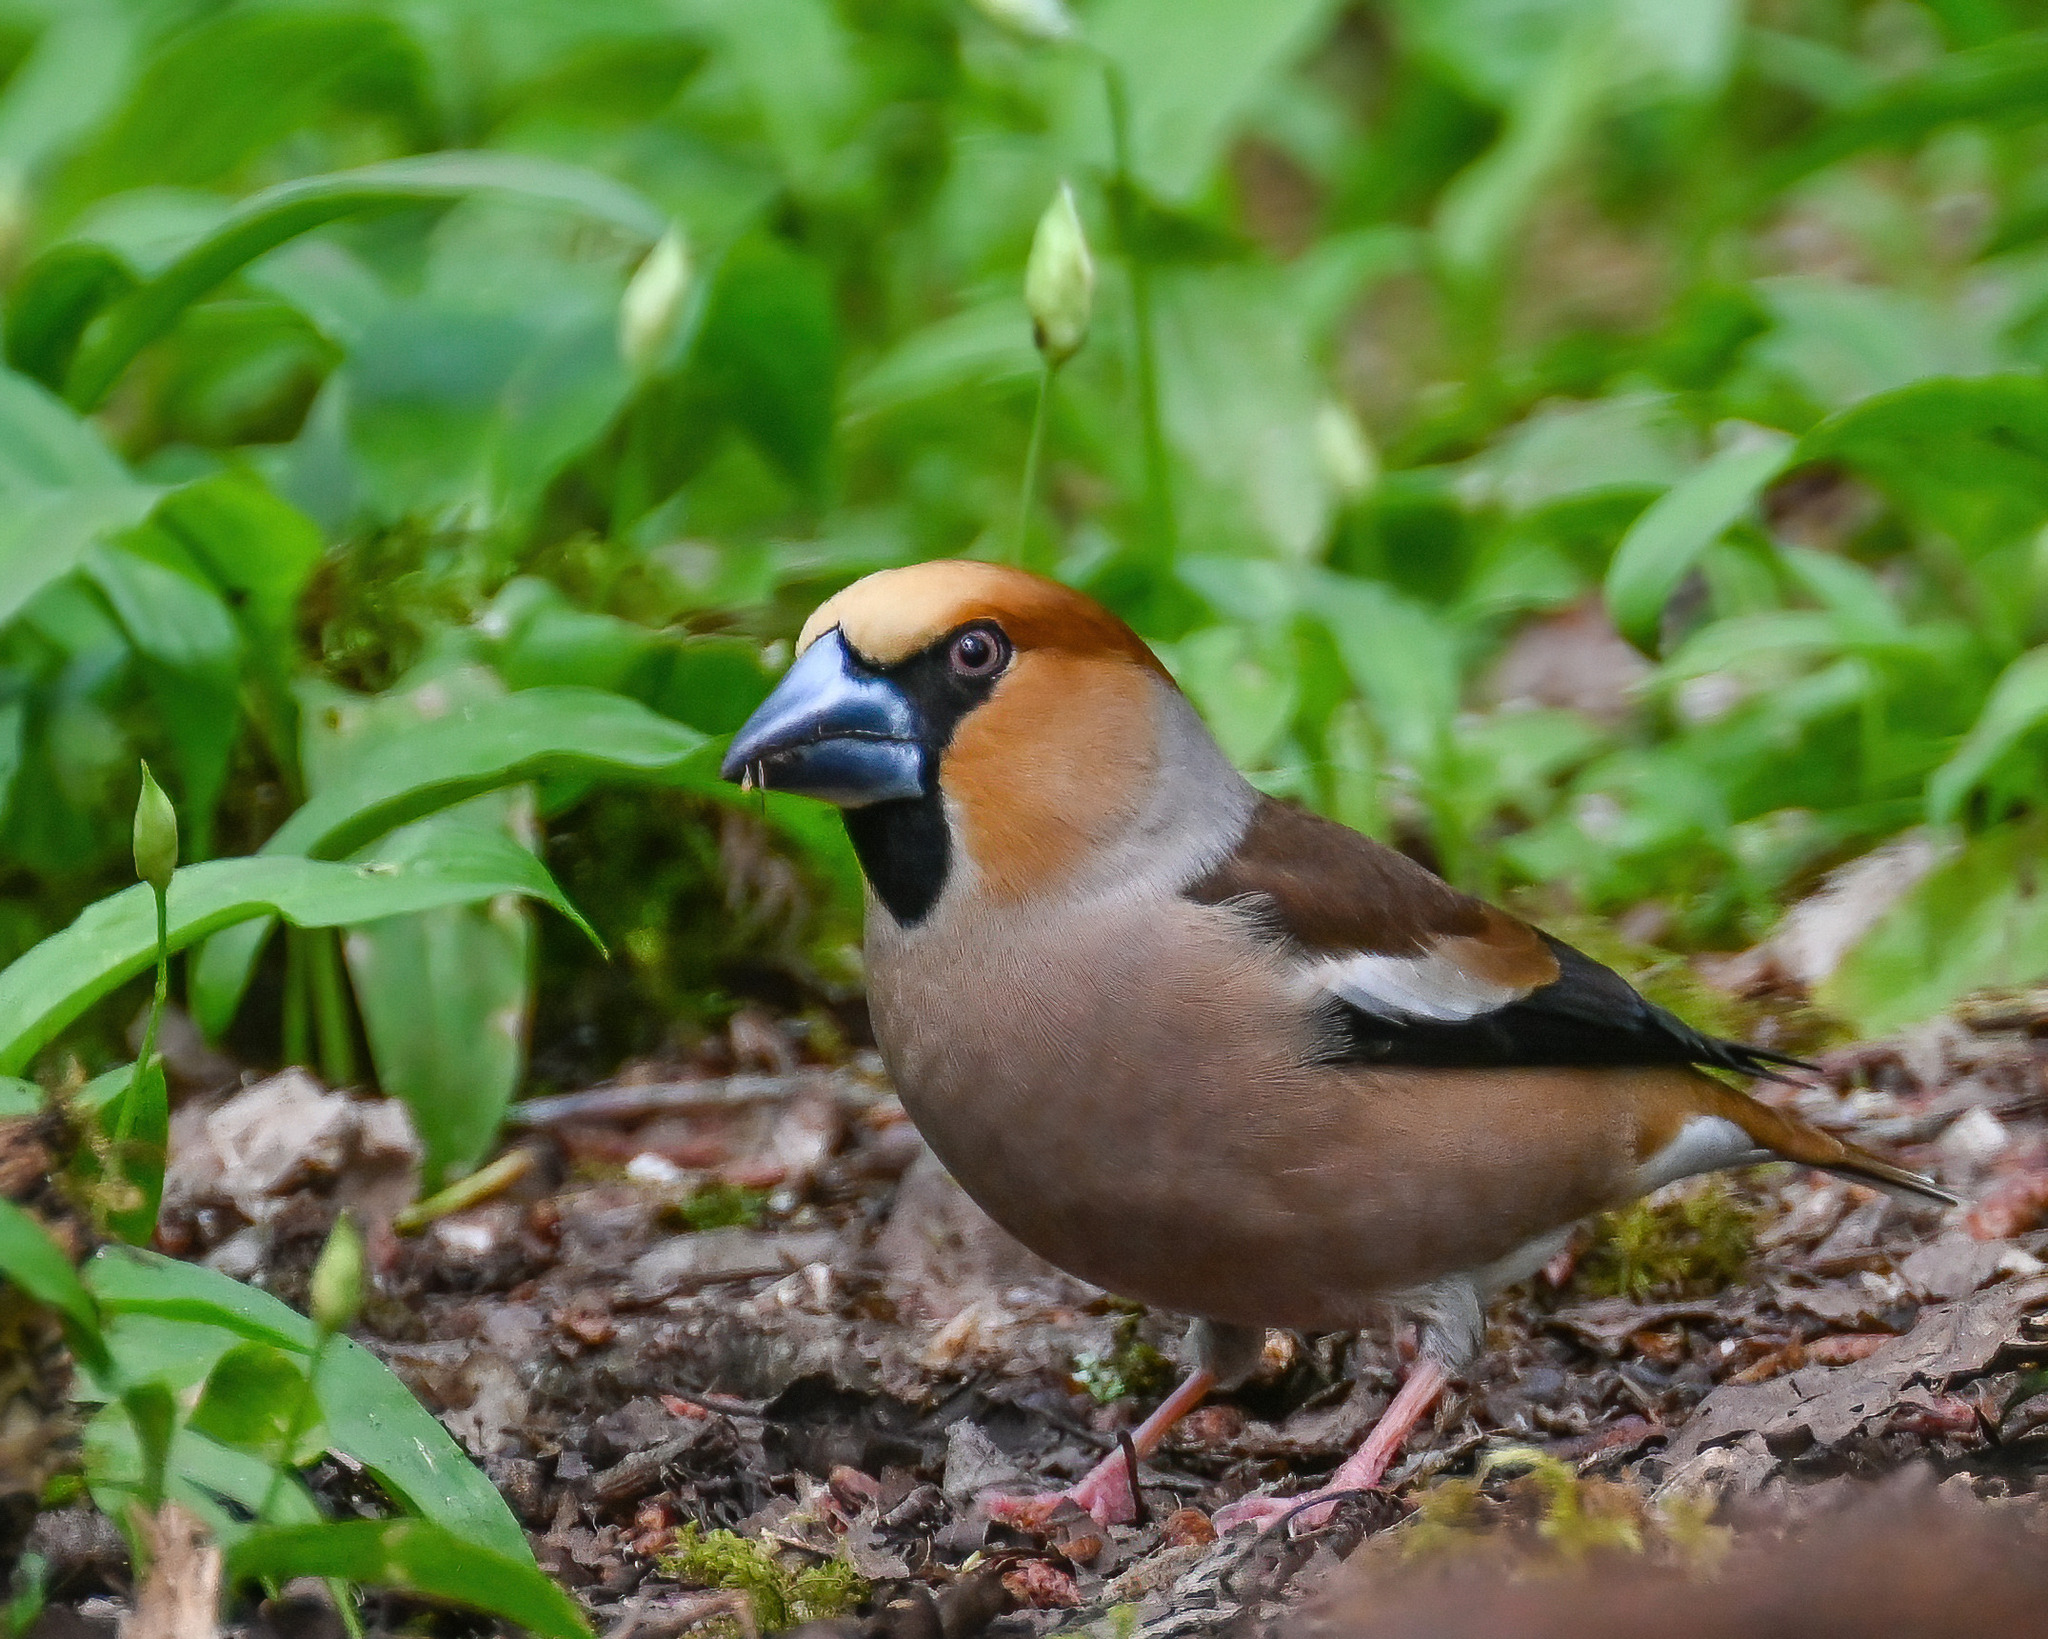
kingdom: Animalia
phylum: Chordata
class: Aves
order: Passeriformes
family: Fringillidae
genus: Coccothraustes
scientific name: Coccothraustes coccothraustes
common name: Hawfinch
